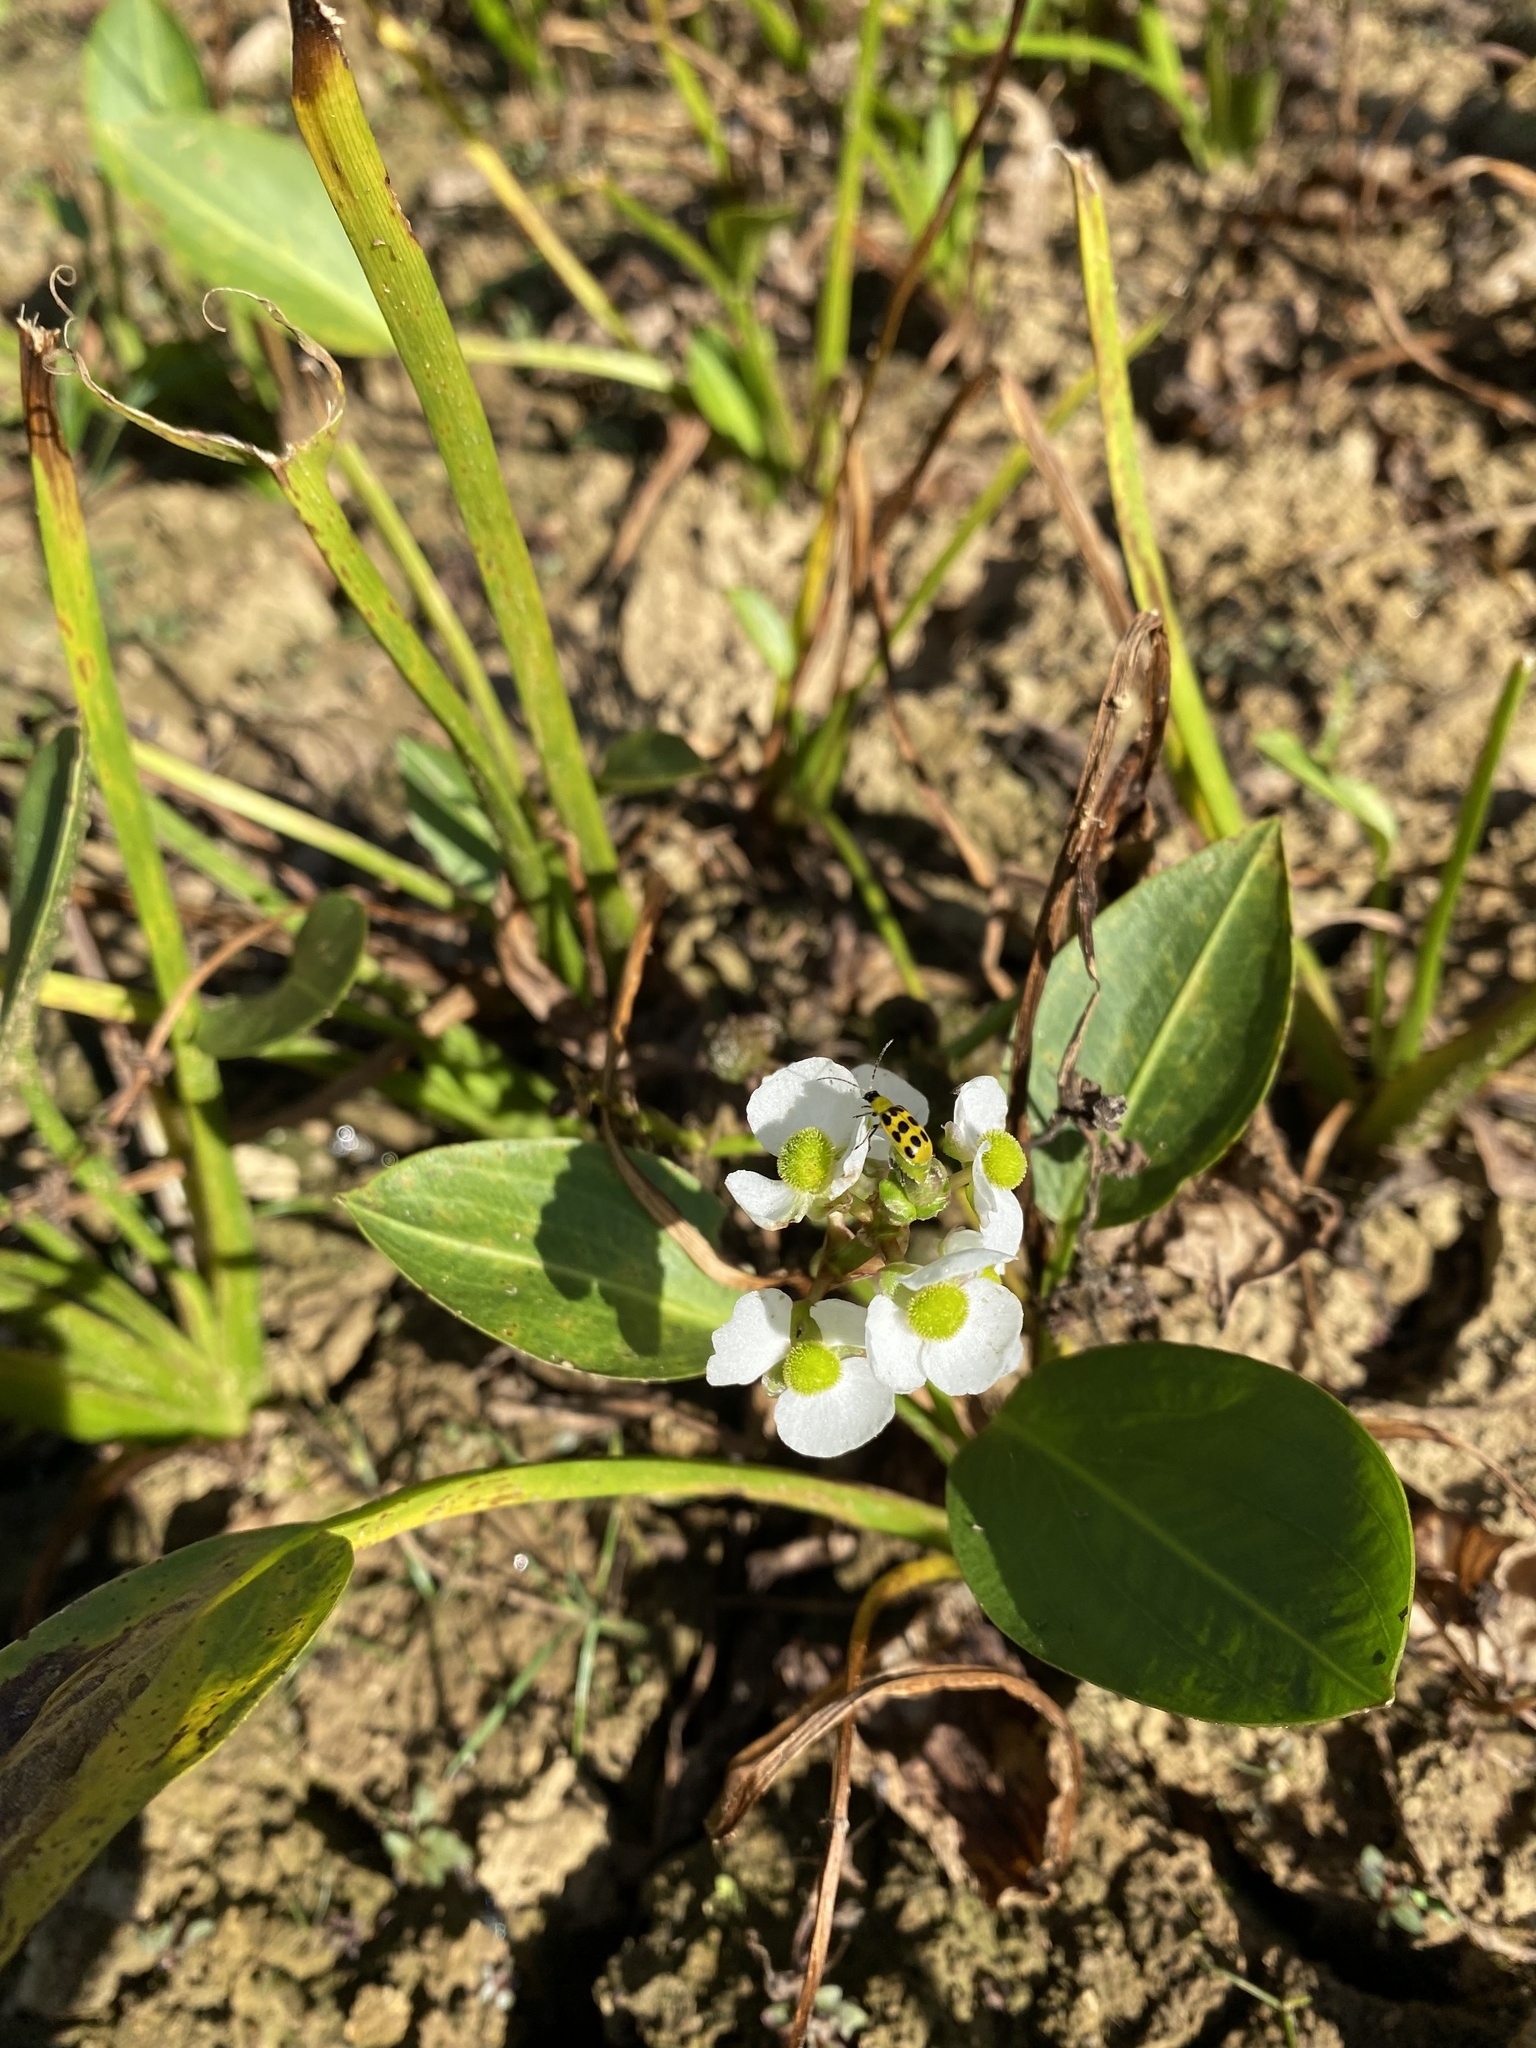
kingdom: Animalia
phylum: Arthropoda
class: Insecta
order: Coleoptera
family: Chrysomelidae
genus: Diabrotica
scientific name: Diabrotica undecimpunctata
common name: Spotted cucumber beetle
